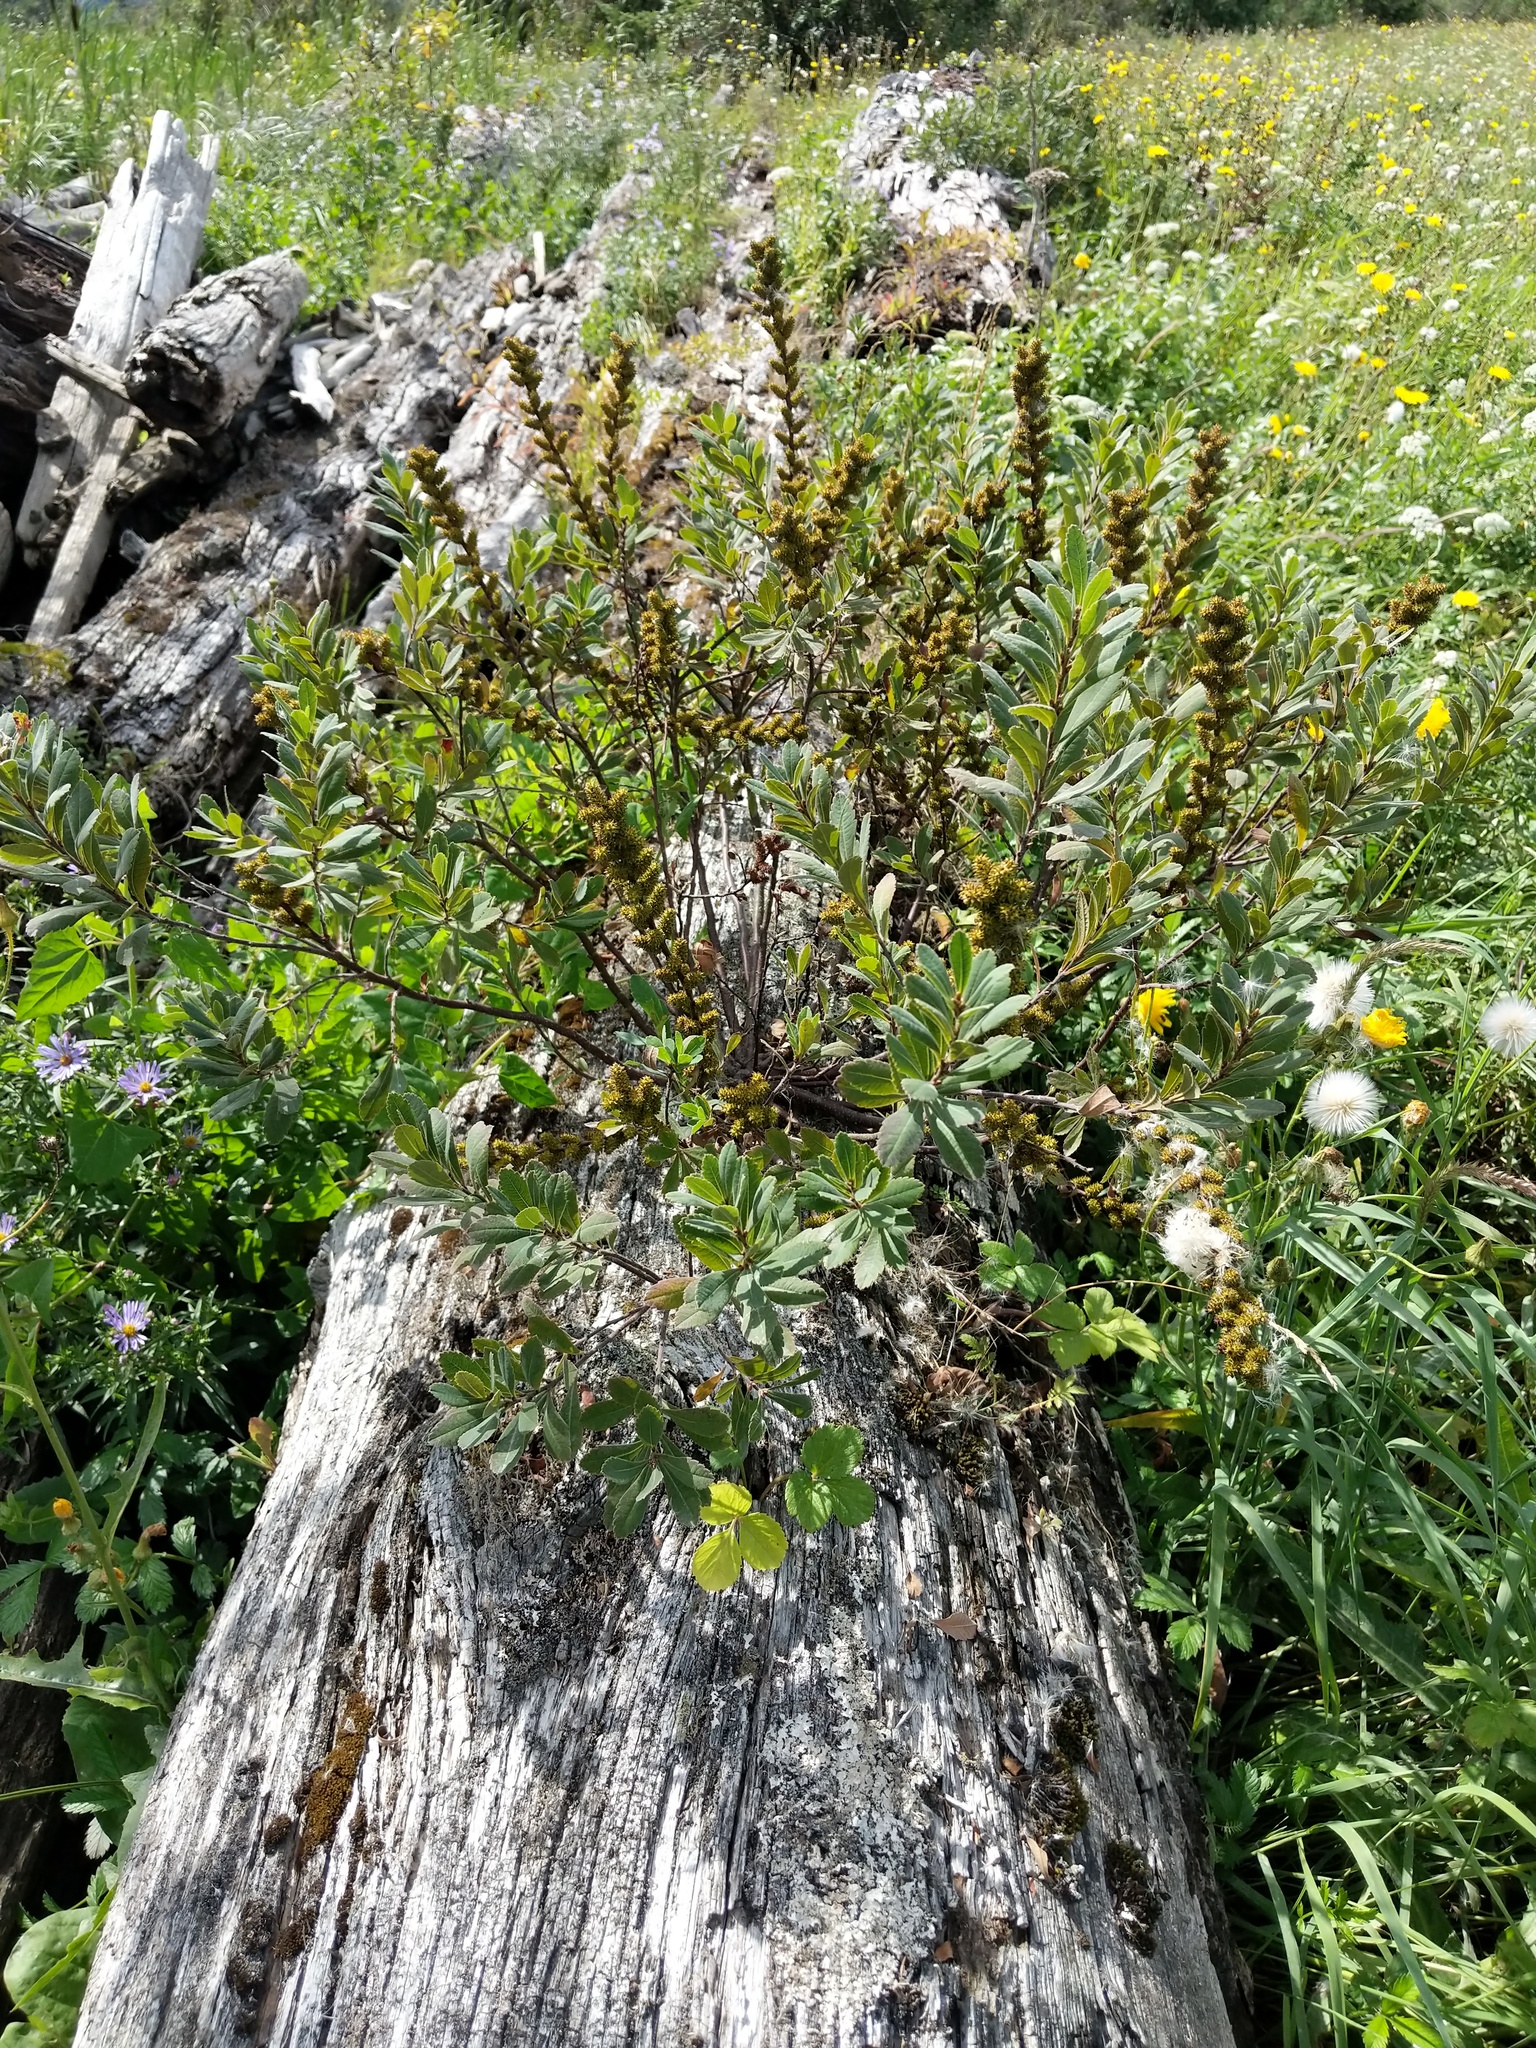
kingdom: Plantae
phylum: Tracheophyta
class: Magnoliopsida
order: Fagales
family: Myricaceae
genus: Myrica
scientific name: Myrica gale
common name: Sweet gale
